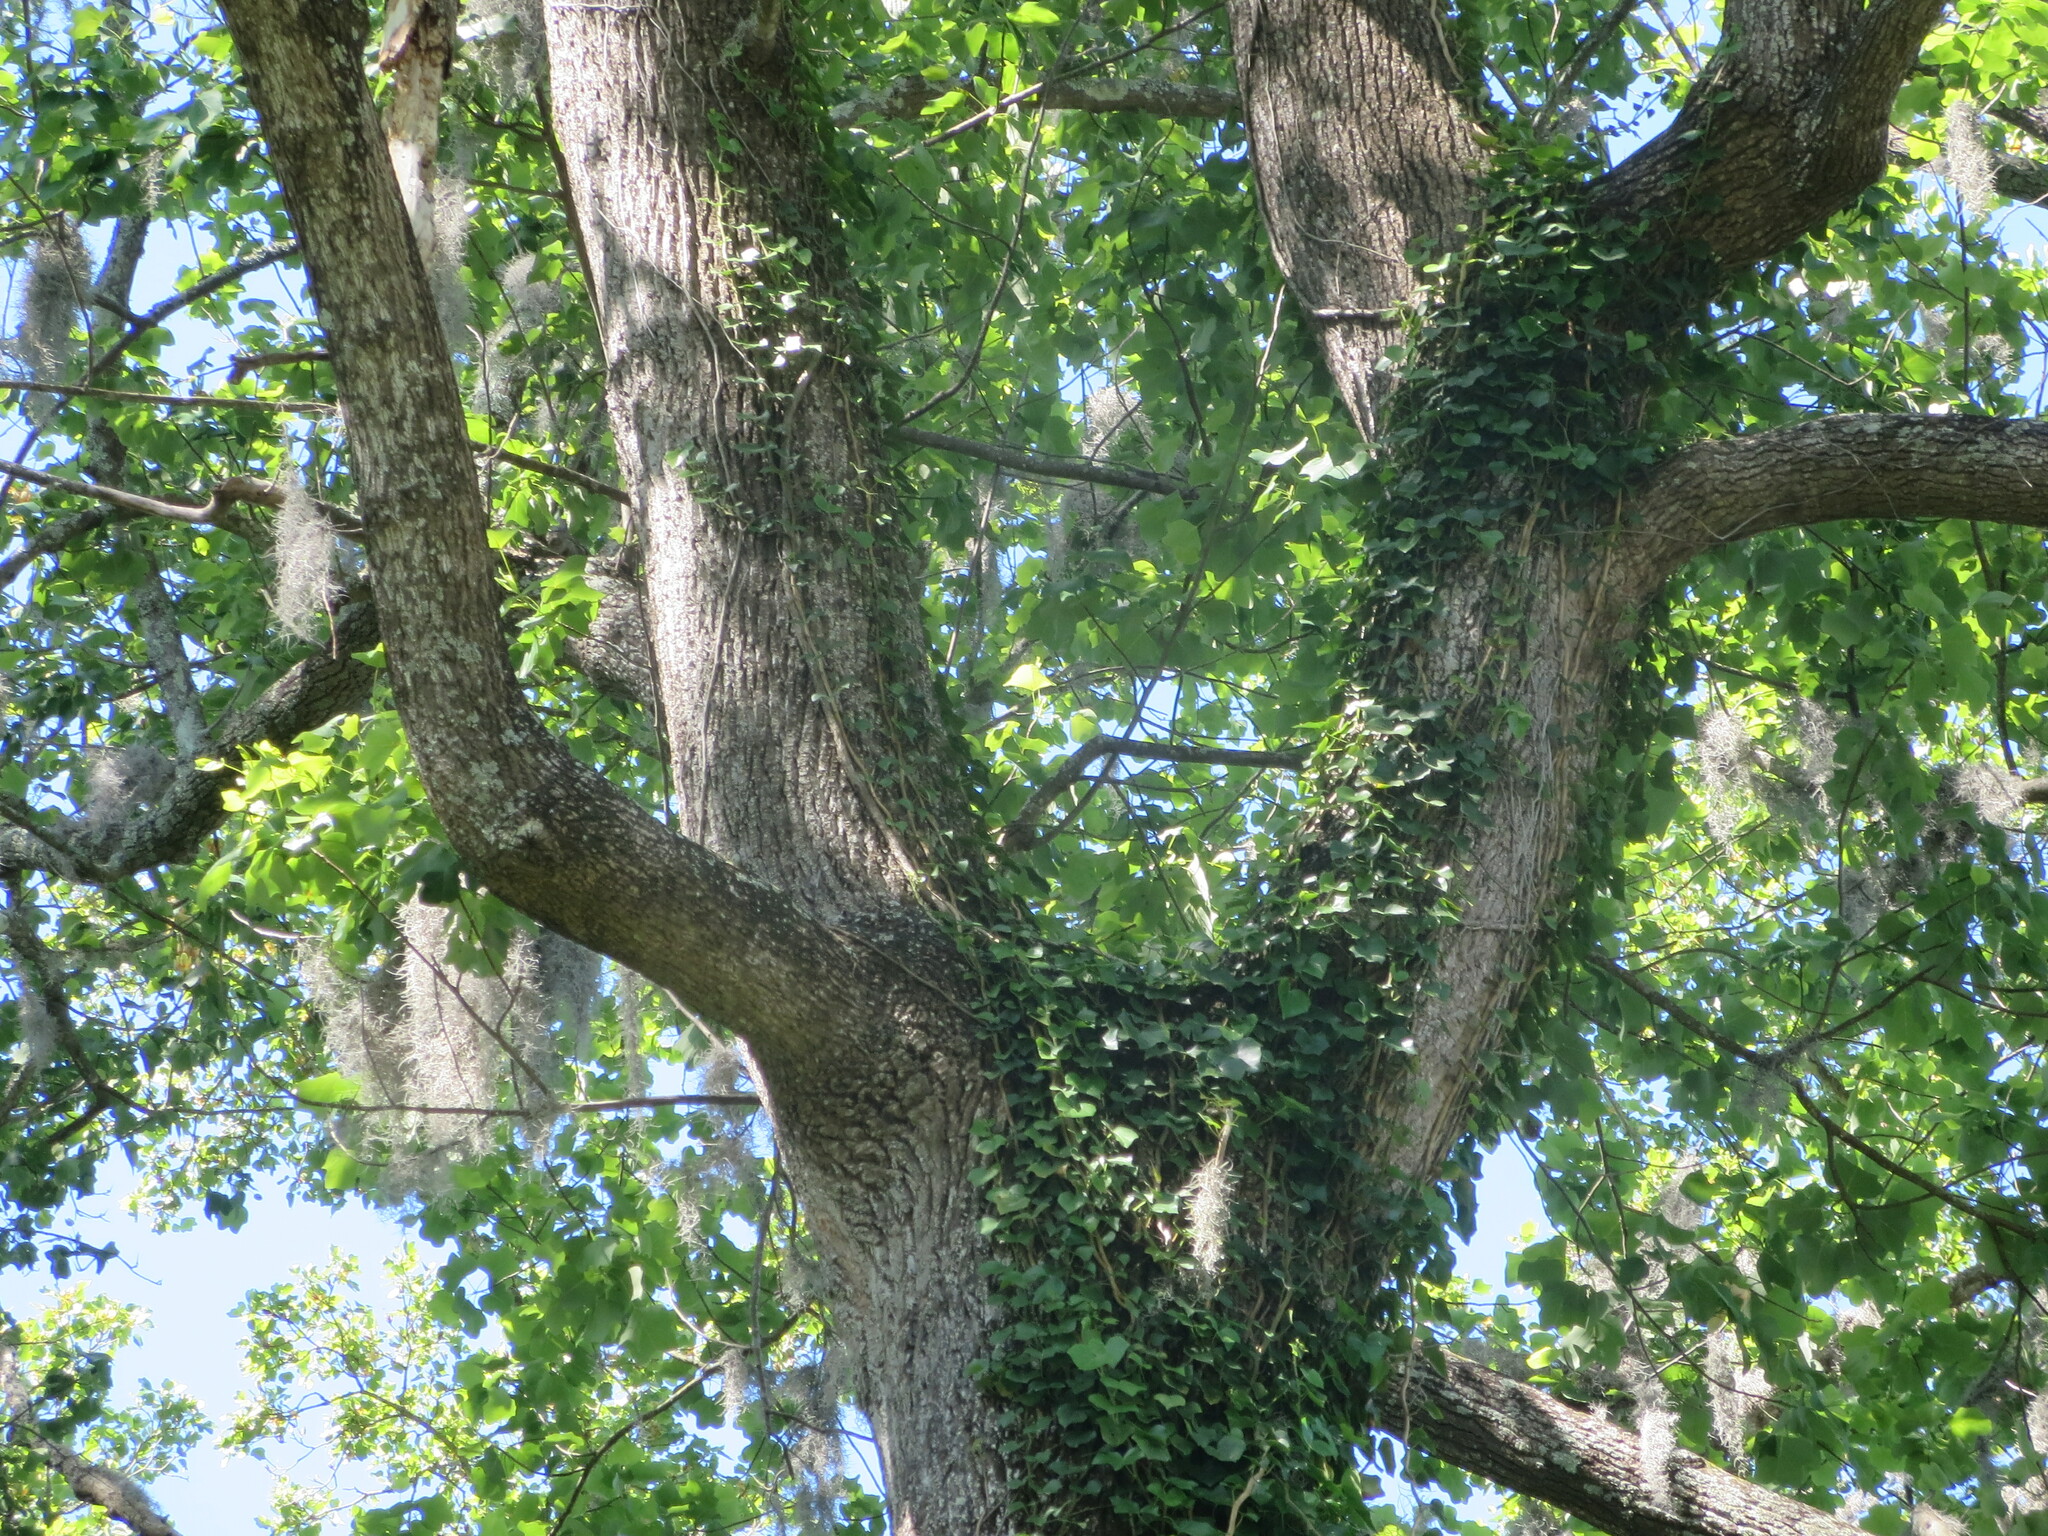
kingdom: Plantae
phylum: Tracheophyta
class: Magnoliopsida
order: Magnoliales
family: Magnoliaceae
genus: Liriodendron
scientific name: Liriodendron tulipifera
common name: Tulip tree
